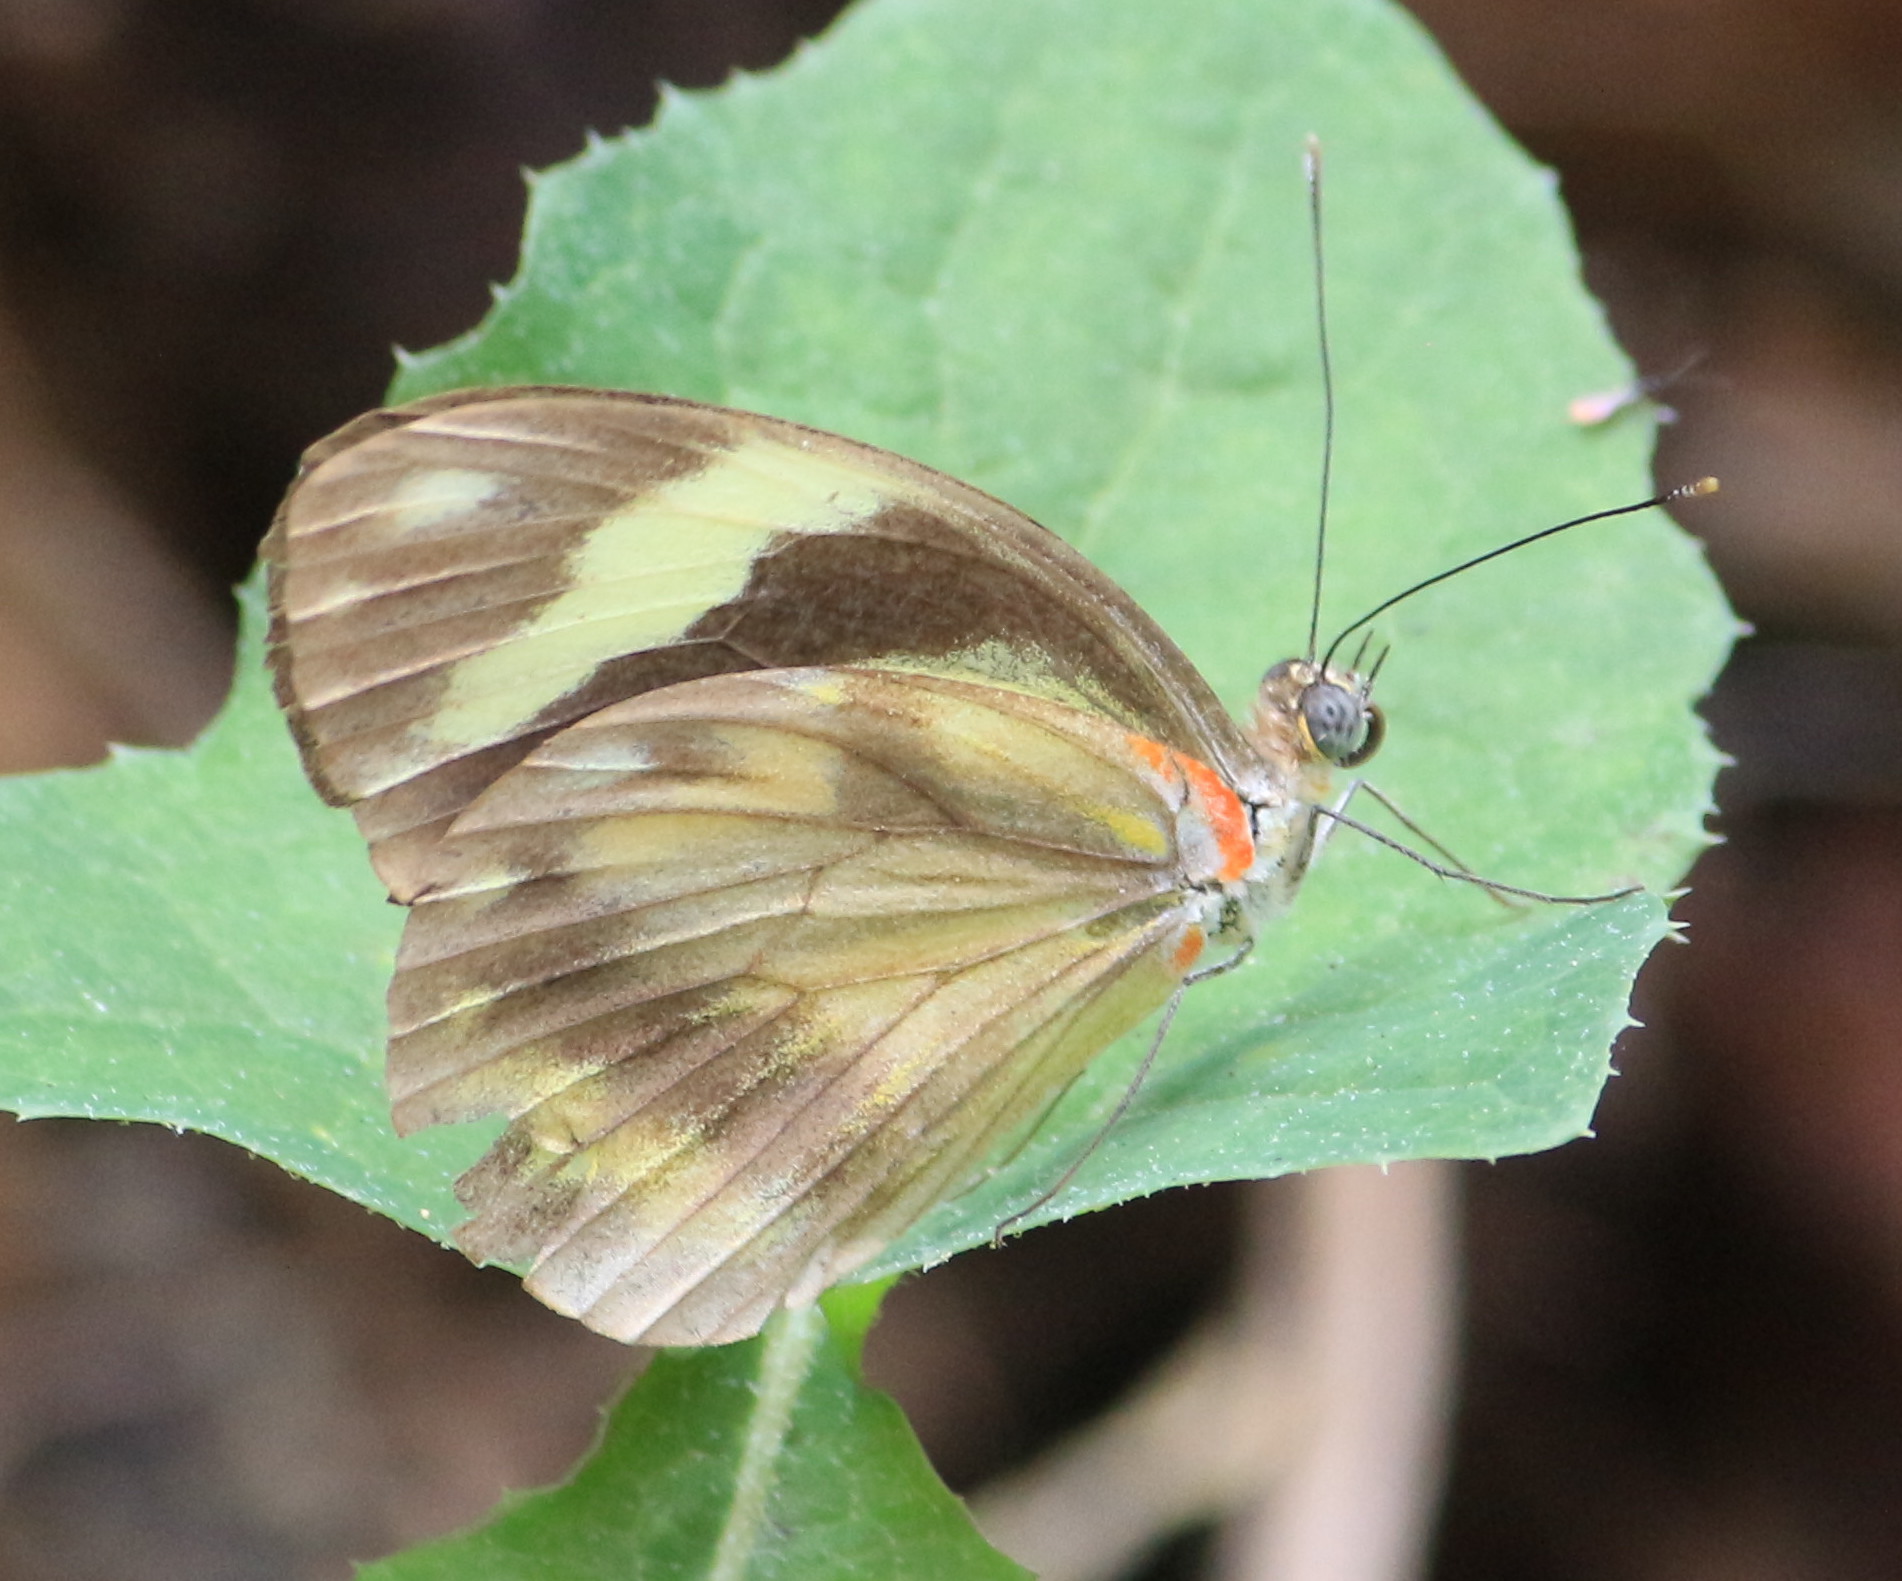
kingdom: Animalia
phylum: Arthropoda
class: Insecta
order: Lepidoptera
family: Pieridae
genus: Pieriballia
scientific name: Pieriballia viardi
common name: Painted white
